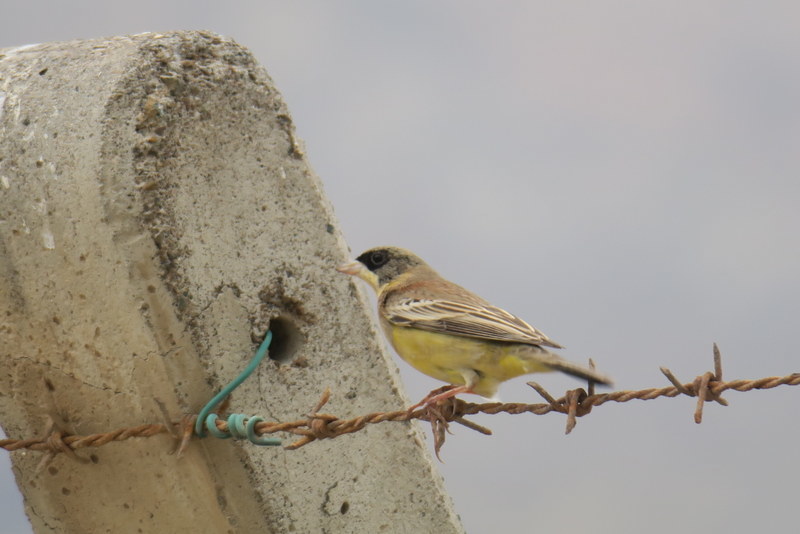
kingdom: Animalia
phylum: Chordata
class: Aves
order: Passeriformes
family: Emberizidae
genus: Emberiza
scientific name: Emberiza melanocephala
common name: Black-headed bunting
